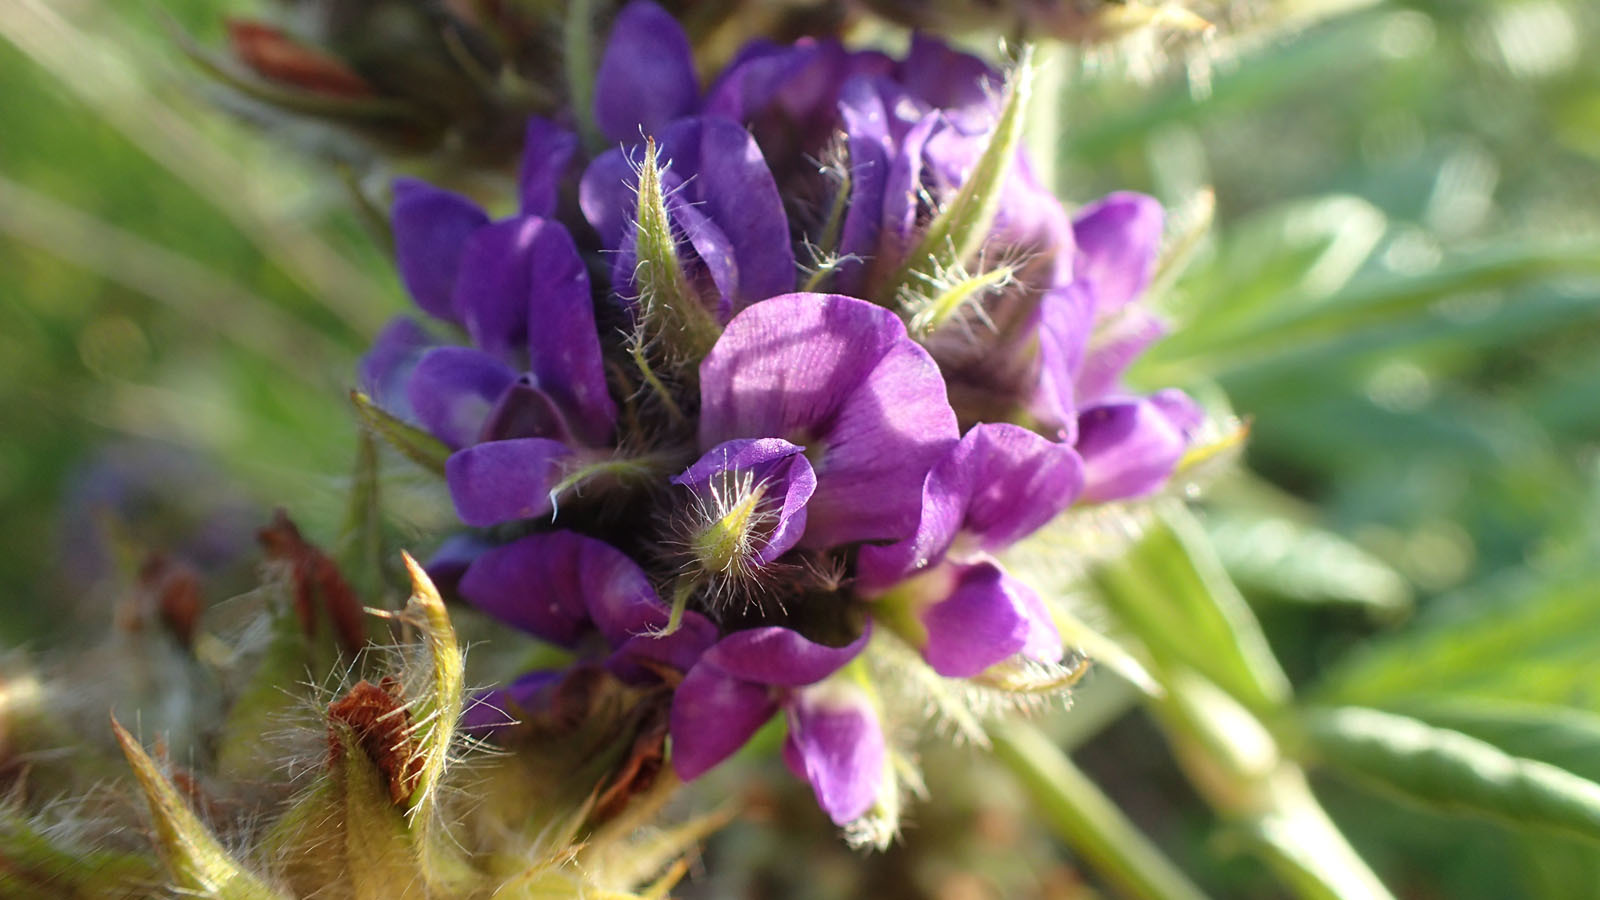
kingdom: Plantae
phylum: Tracheophyta
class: Magnoliopsida
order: Fabales
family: Fabaceae
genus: Psoralea
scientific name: Psoralea sericea
